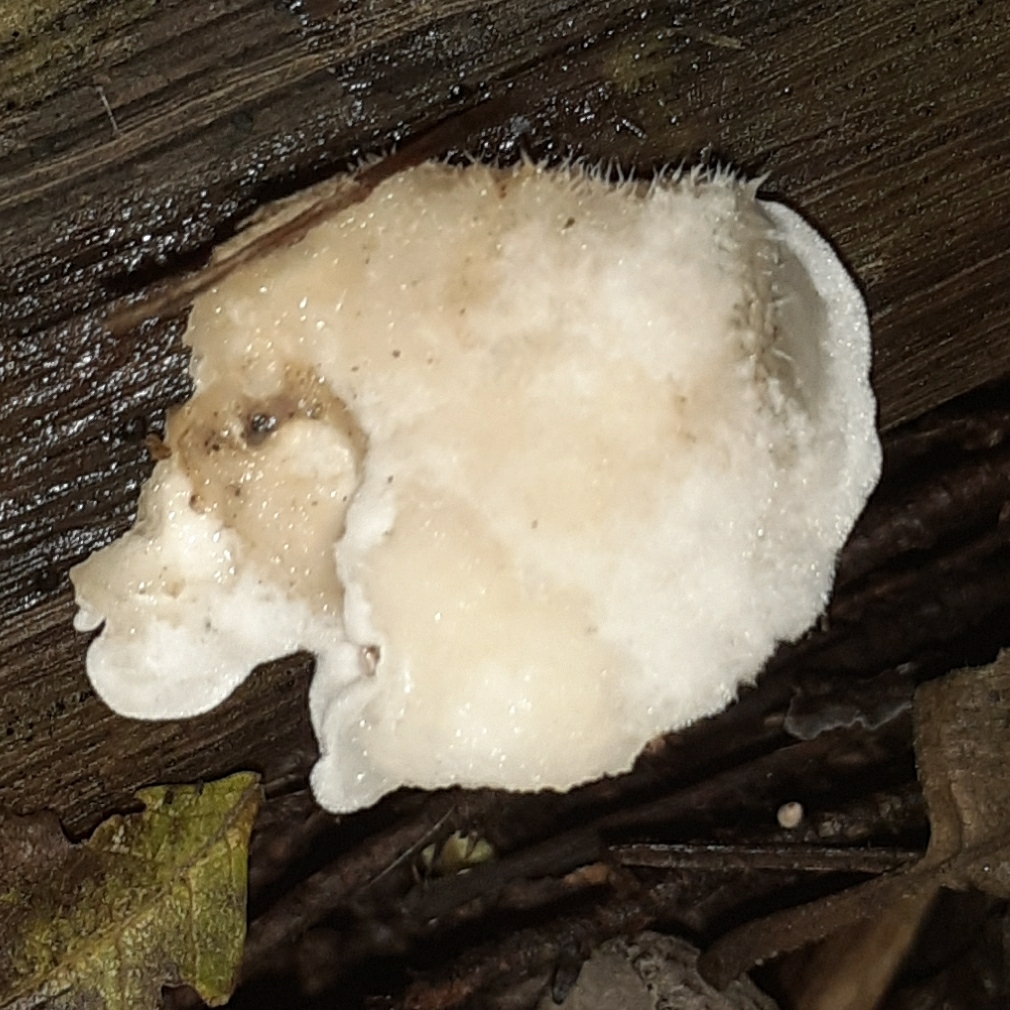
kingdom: Fungi
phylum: Basidiomycota
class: Agaricomycetes
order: Polyporales
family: Incrustoporiaceae
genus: Tyromyces
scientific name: Tyromyces chioneus
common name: White cheese polypore
